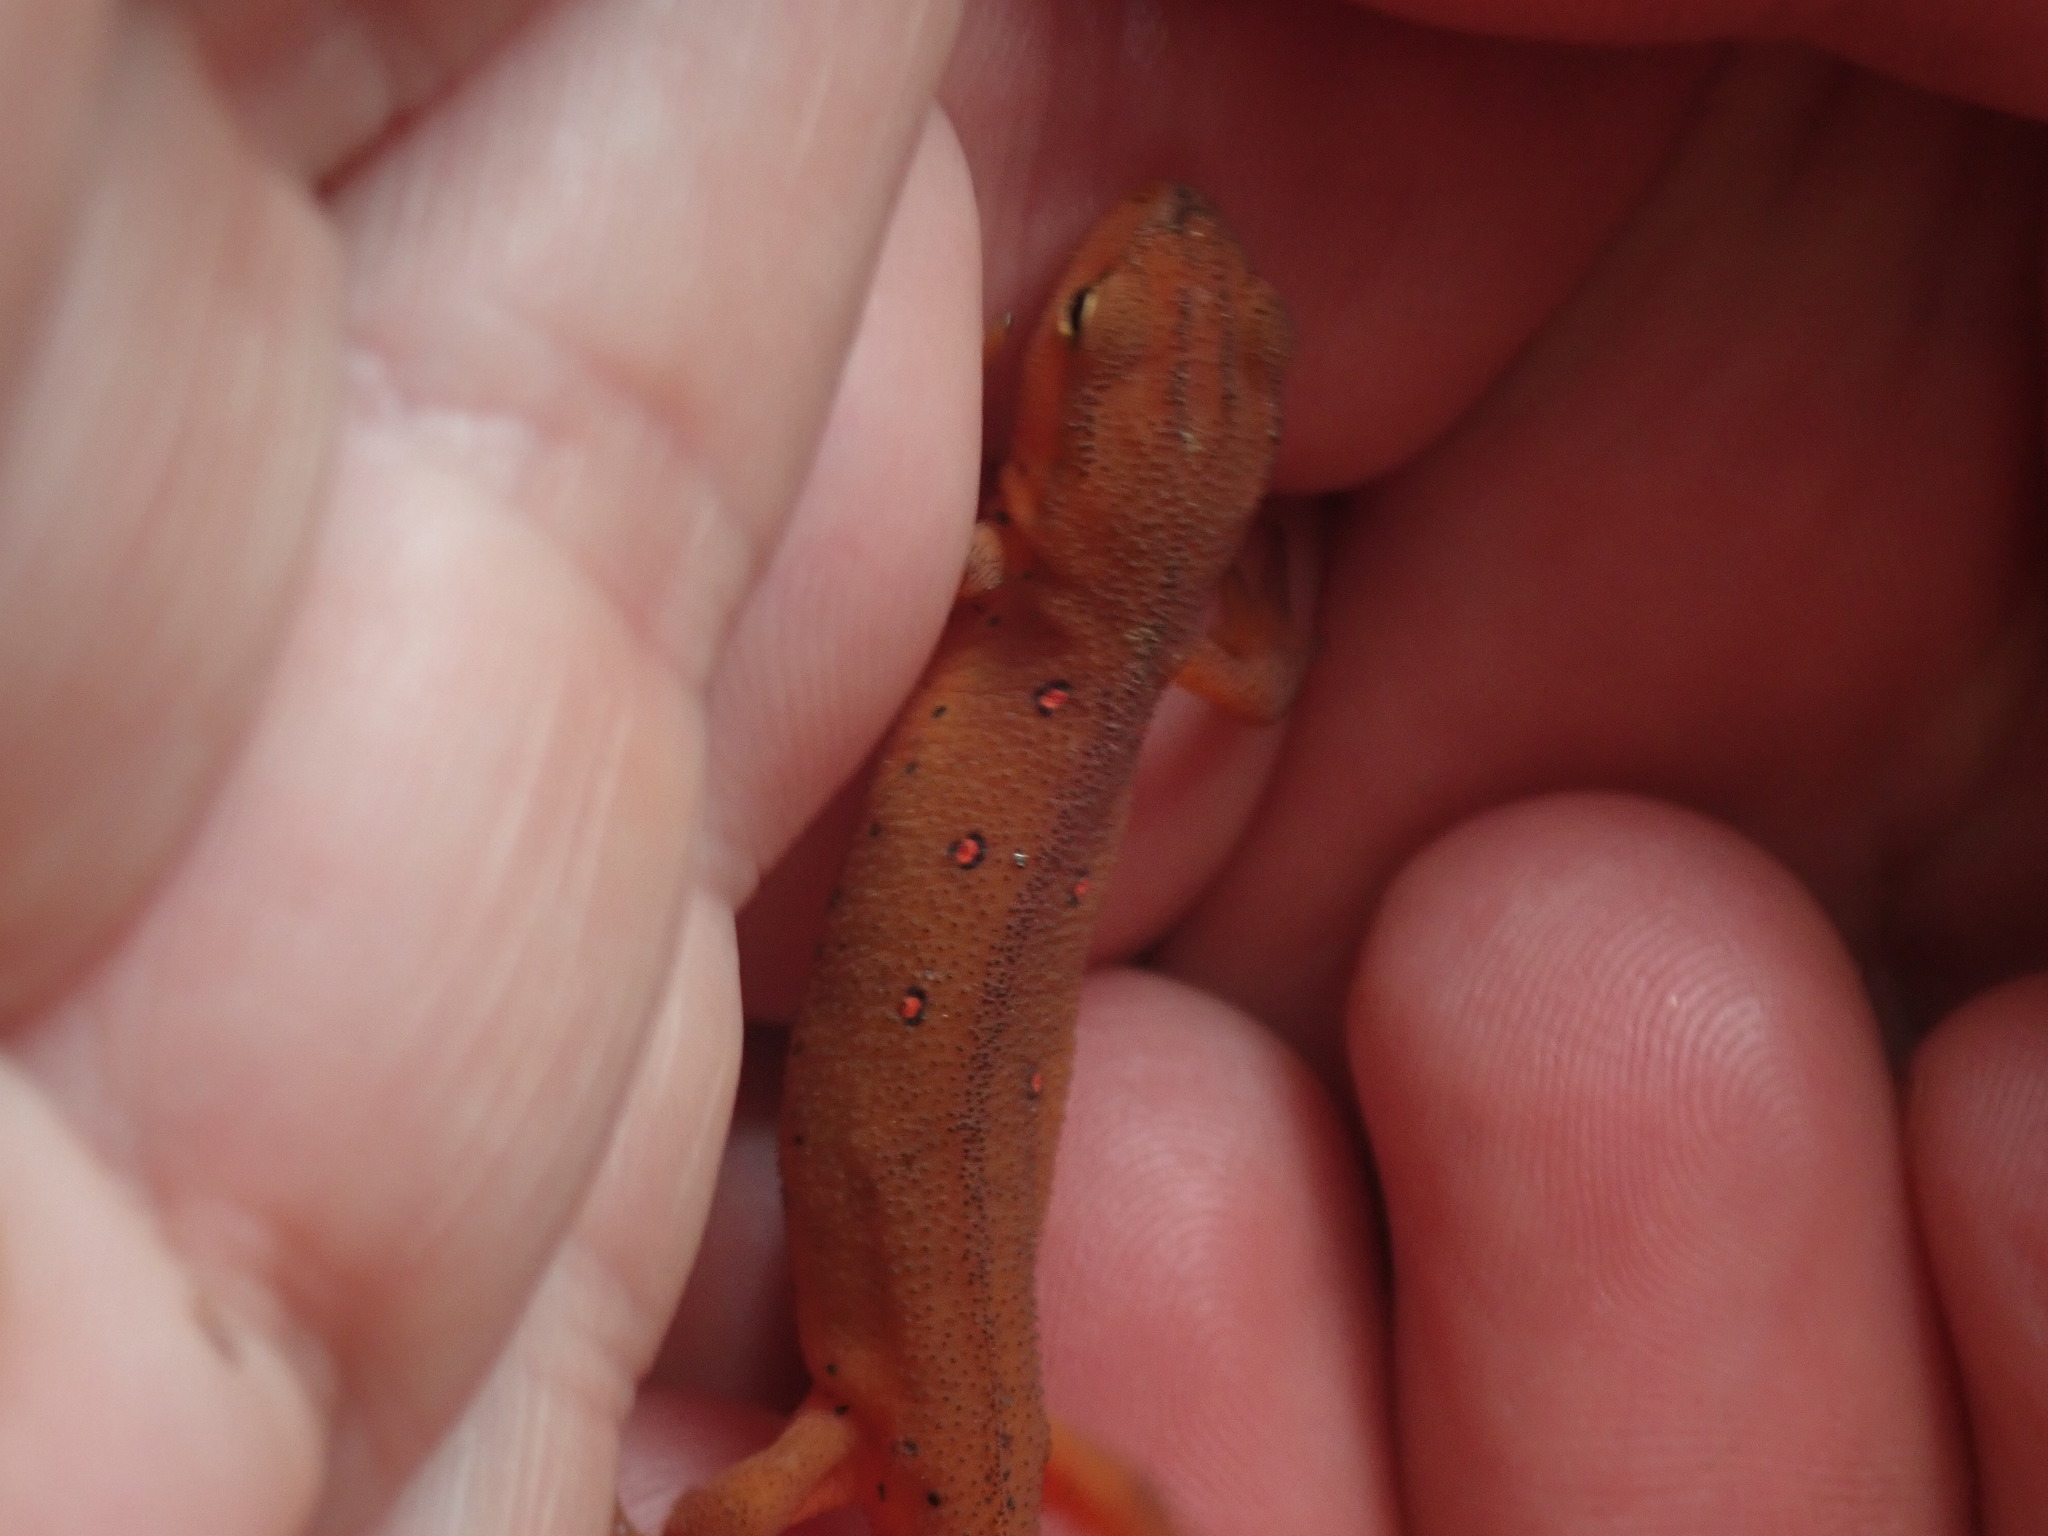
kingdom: Animalia
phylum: Chordata
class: Amphibia
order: Caudata
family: Salamandridae
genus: Notophthalmus
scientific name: Notophthalmus viridescens
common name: Eastern newt
